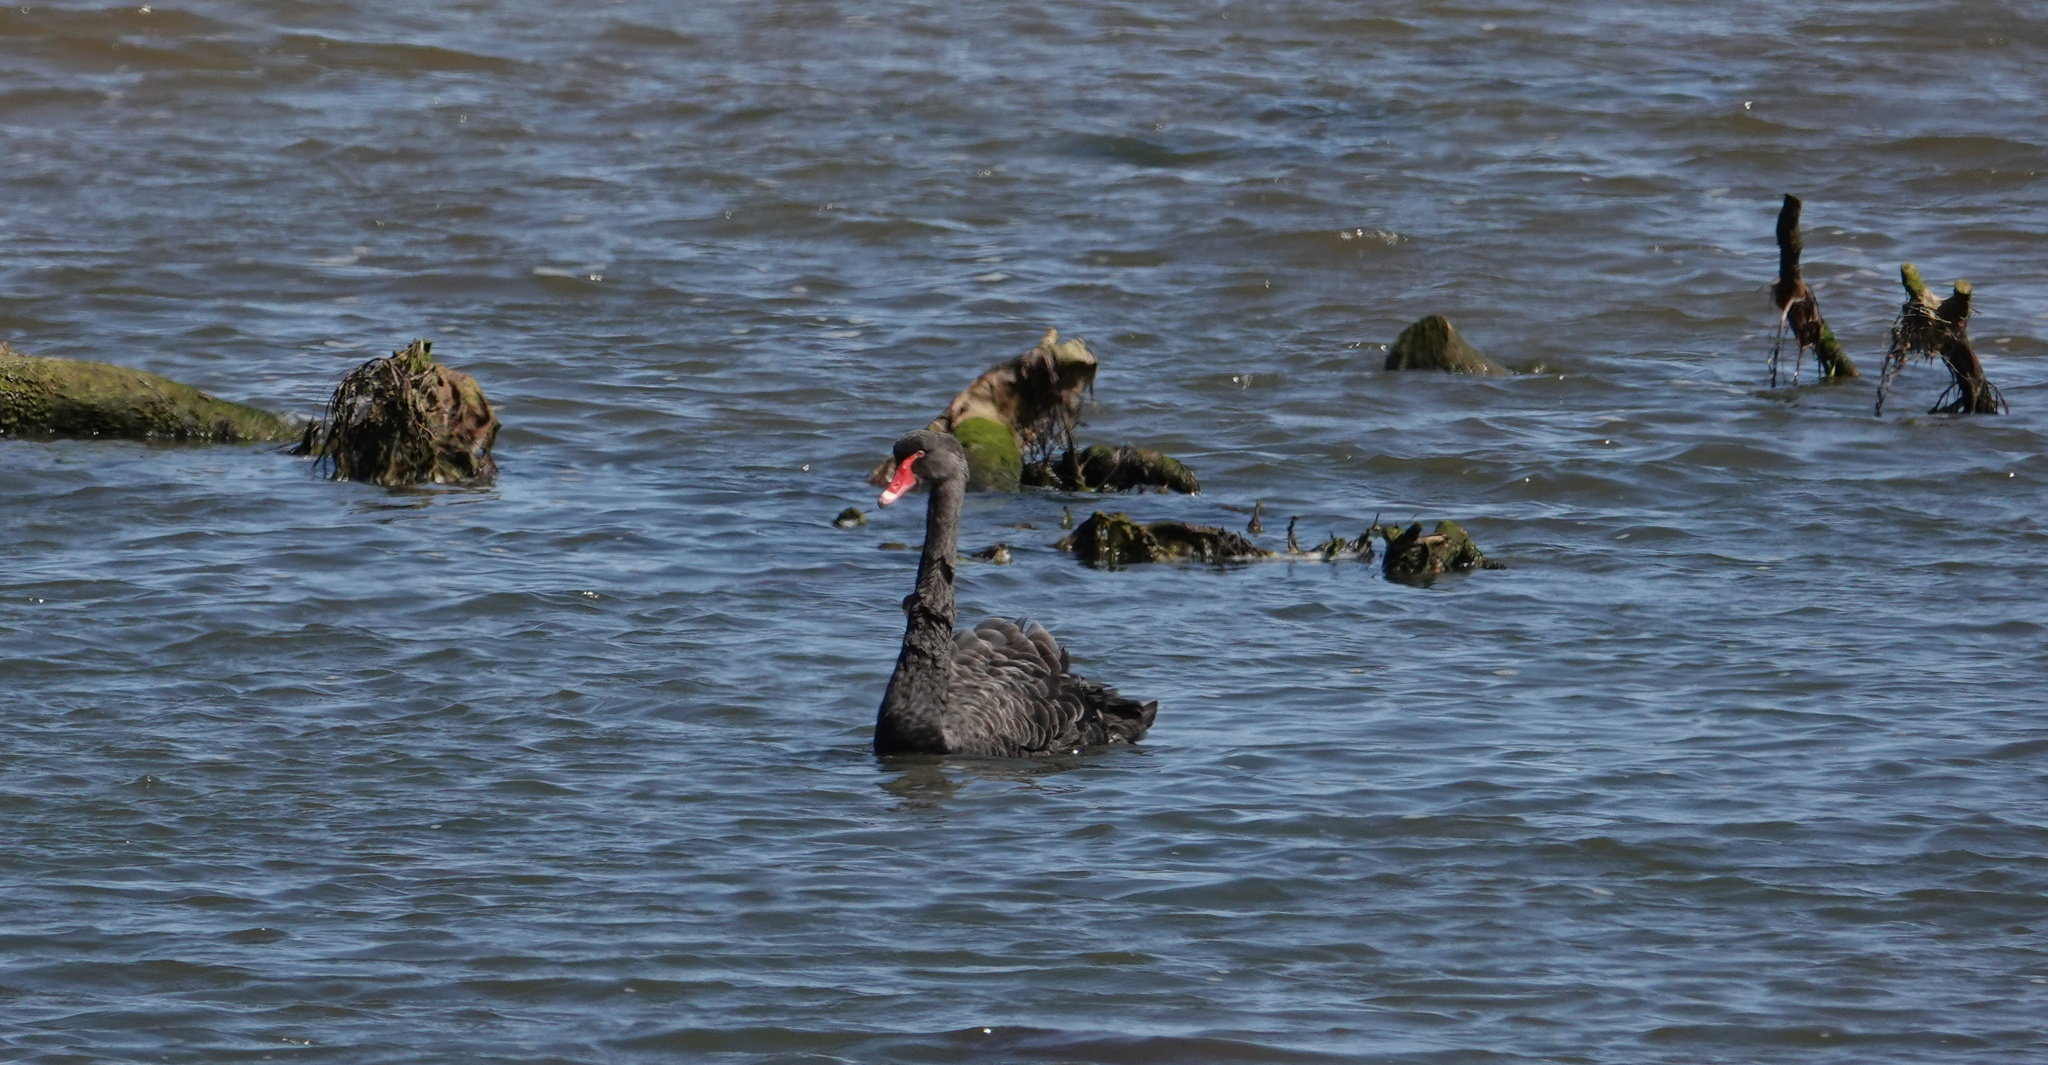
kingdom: Animalia
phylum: Chordata
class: Aves
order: Anseriformes
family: Anatidae
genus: Cygnus
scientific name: Cygnus atratus
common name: Black swan
